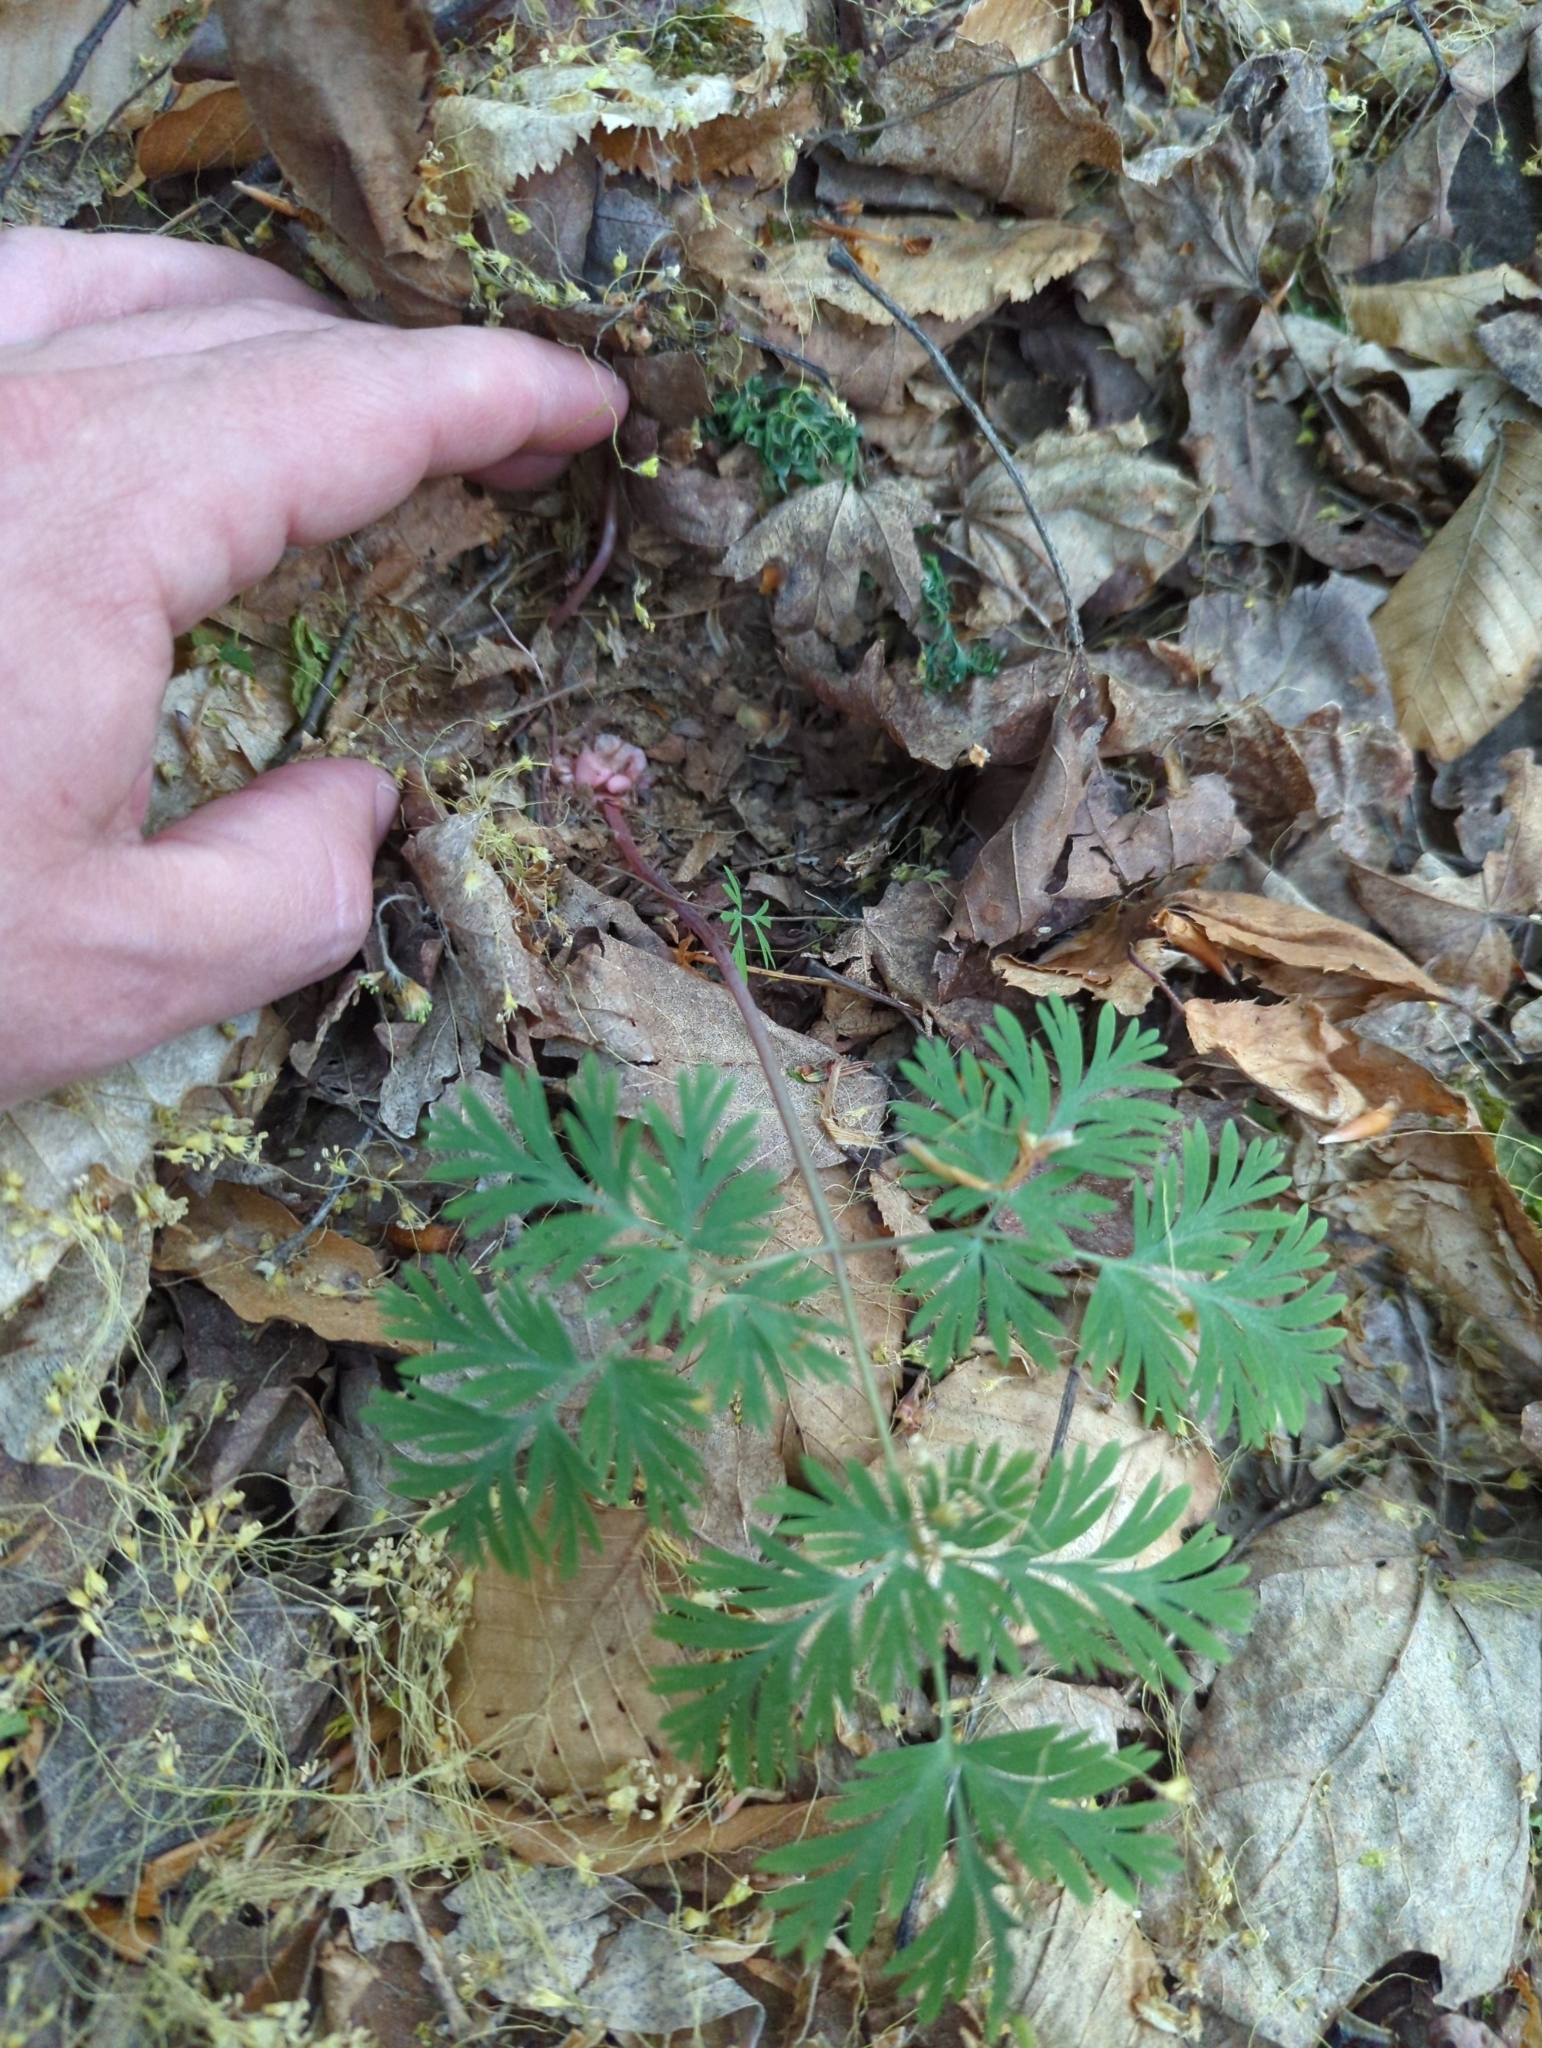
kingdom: Plantae
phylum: Tracheophyta
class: Magnoliopsida
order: Ranunculales
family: Papaveraceae
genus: Dicentra
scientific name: Dicentra cucullaria
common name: Dutchman's breeches
